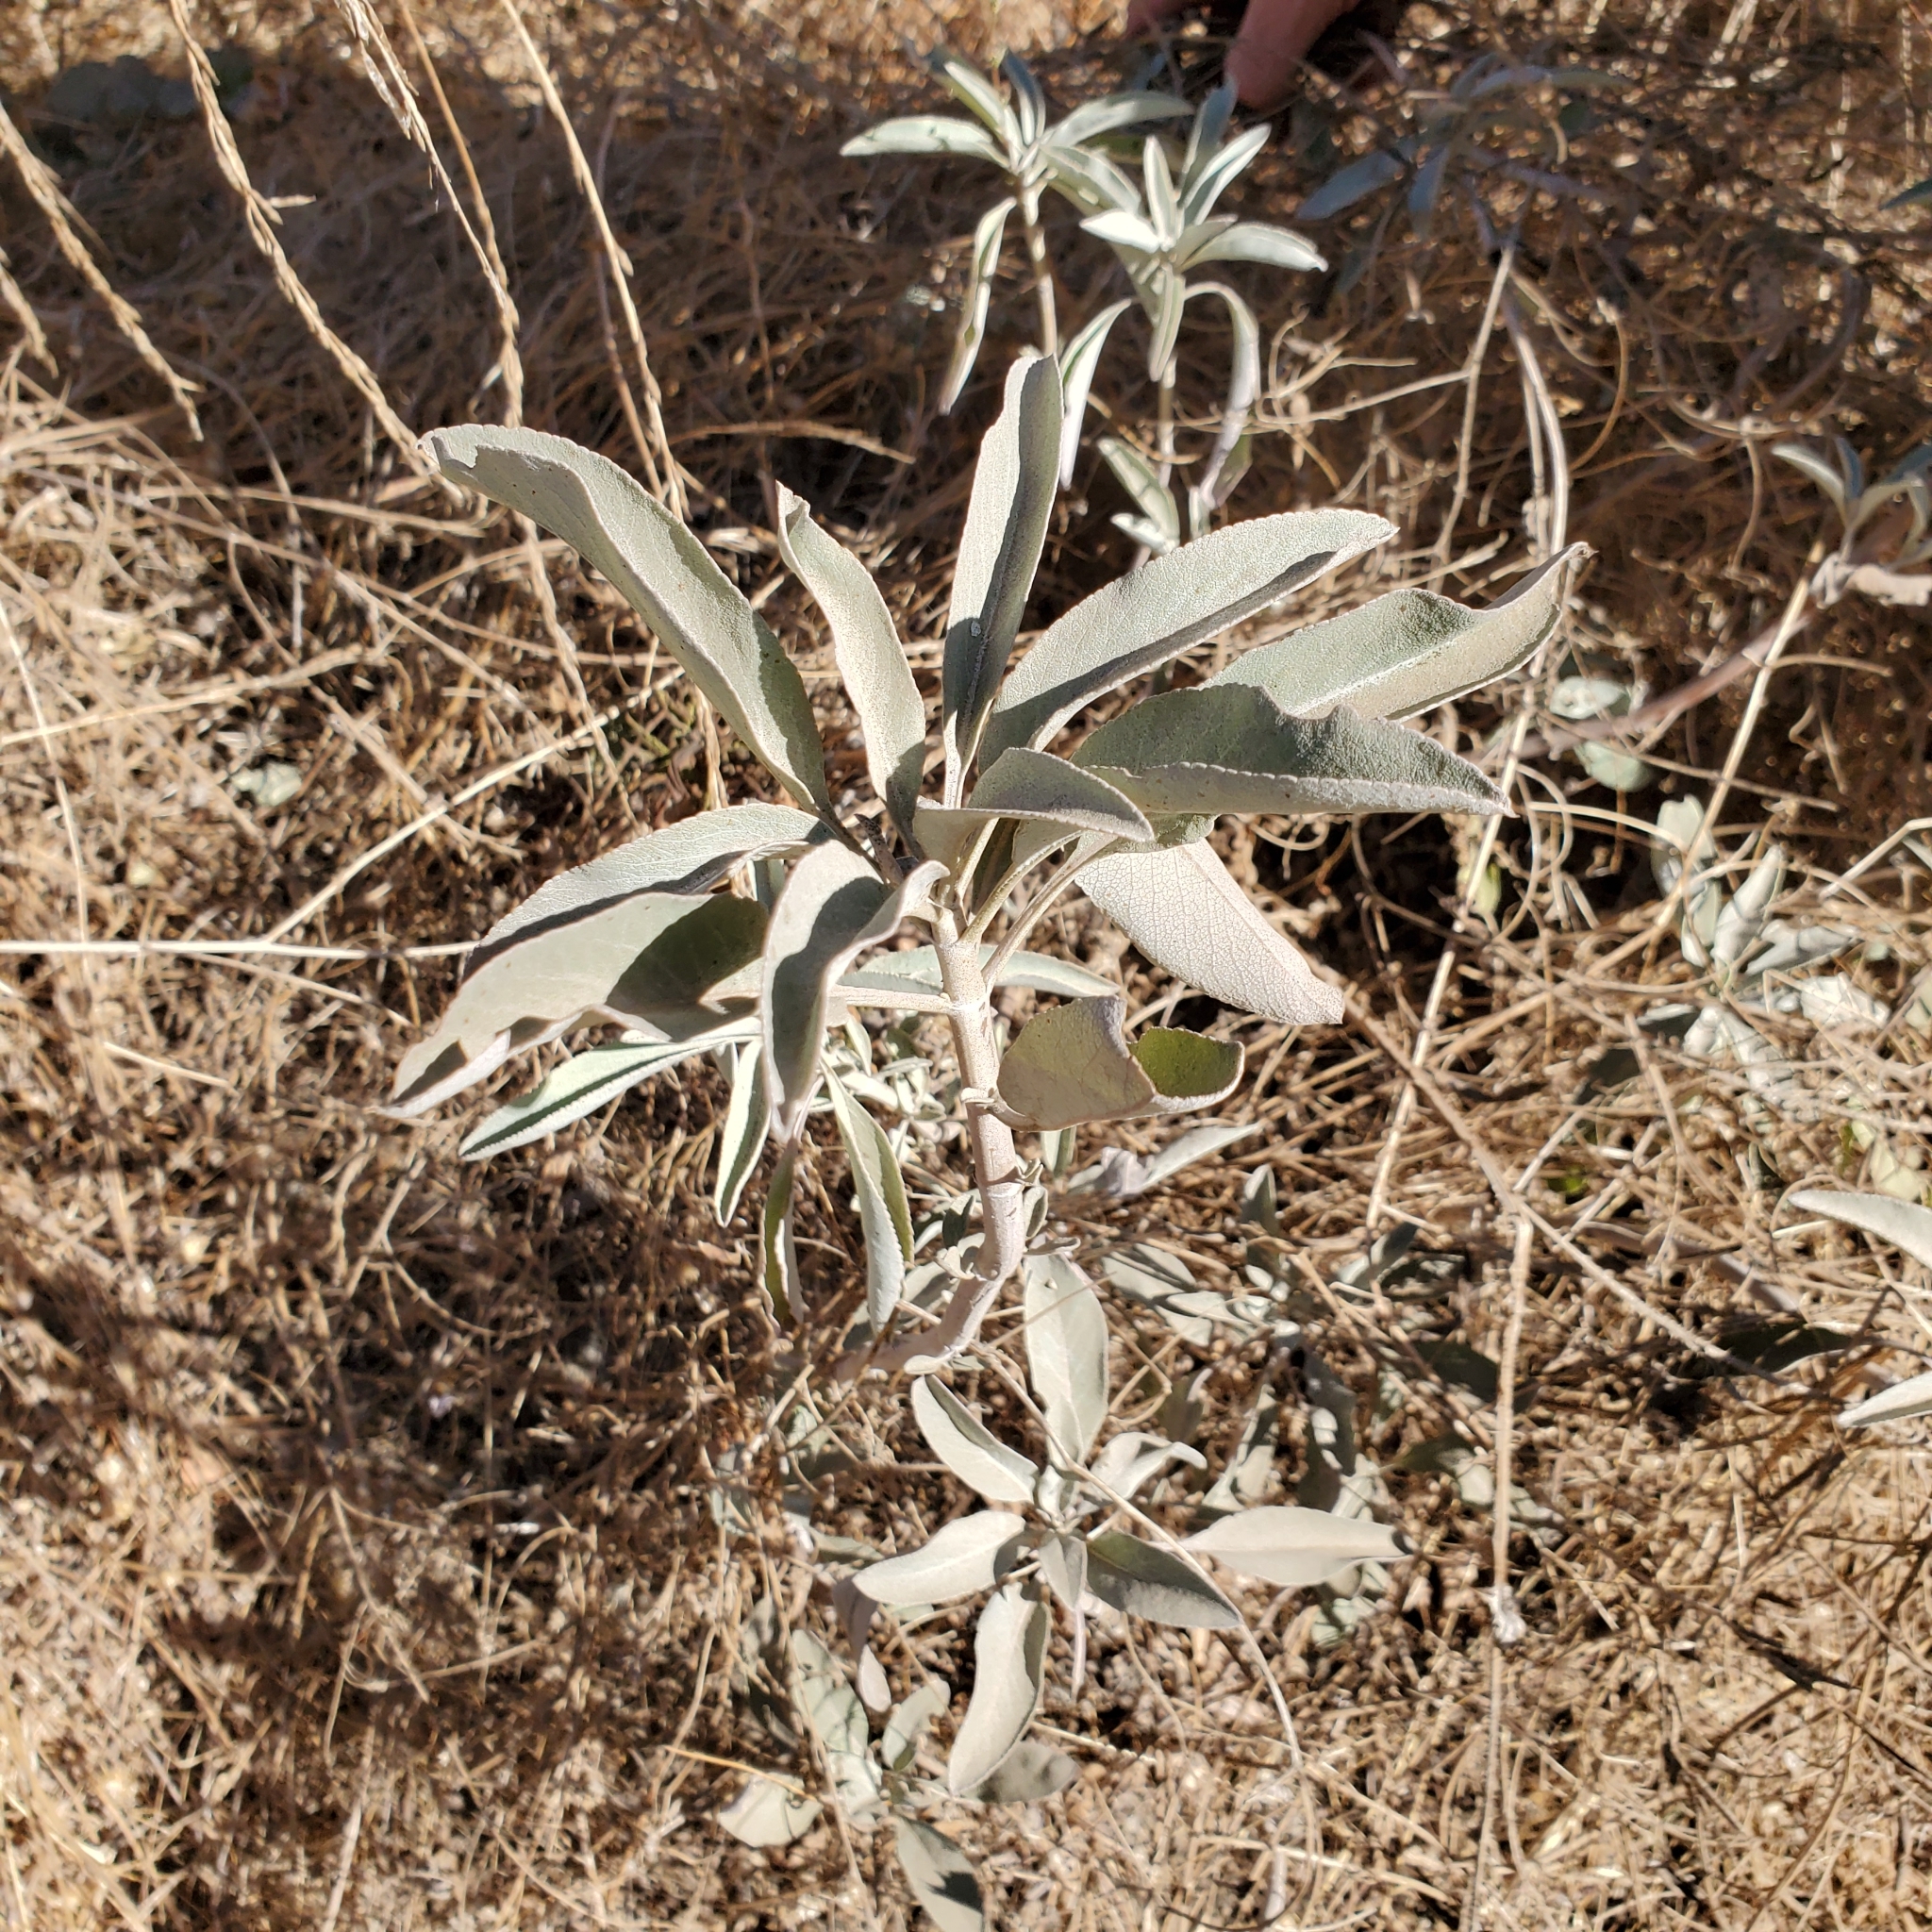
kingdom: Plantae
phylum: Tracheophyta
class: Magnoliopsida
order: Lamiales
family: Lamiaceae
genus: Salvia
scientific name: Salvia apiana
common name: White sage
